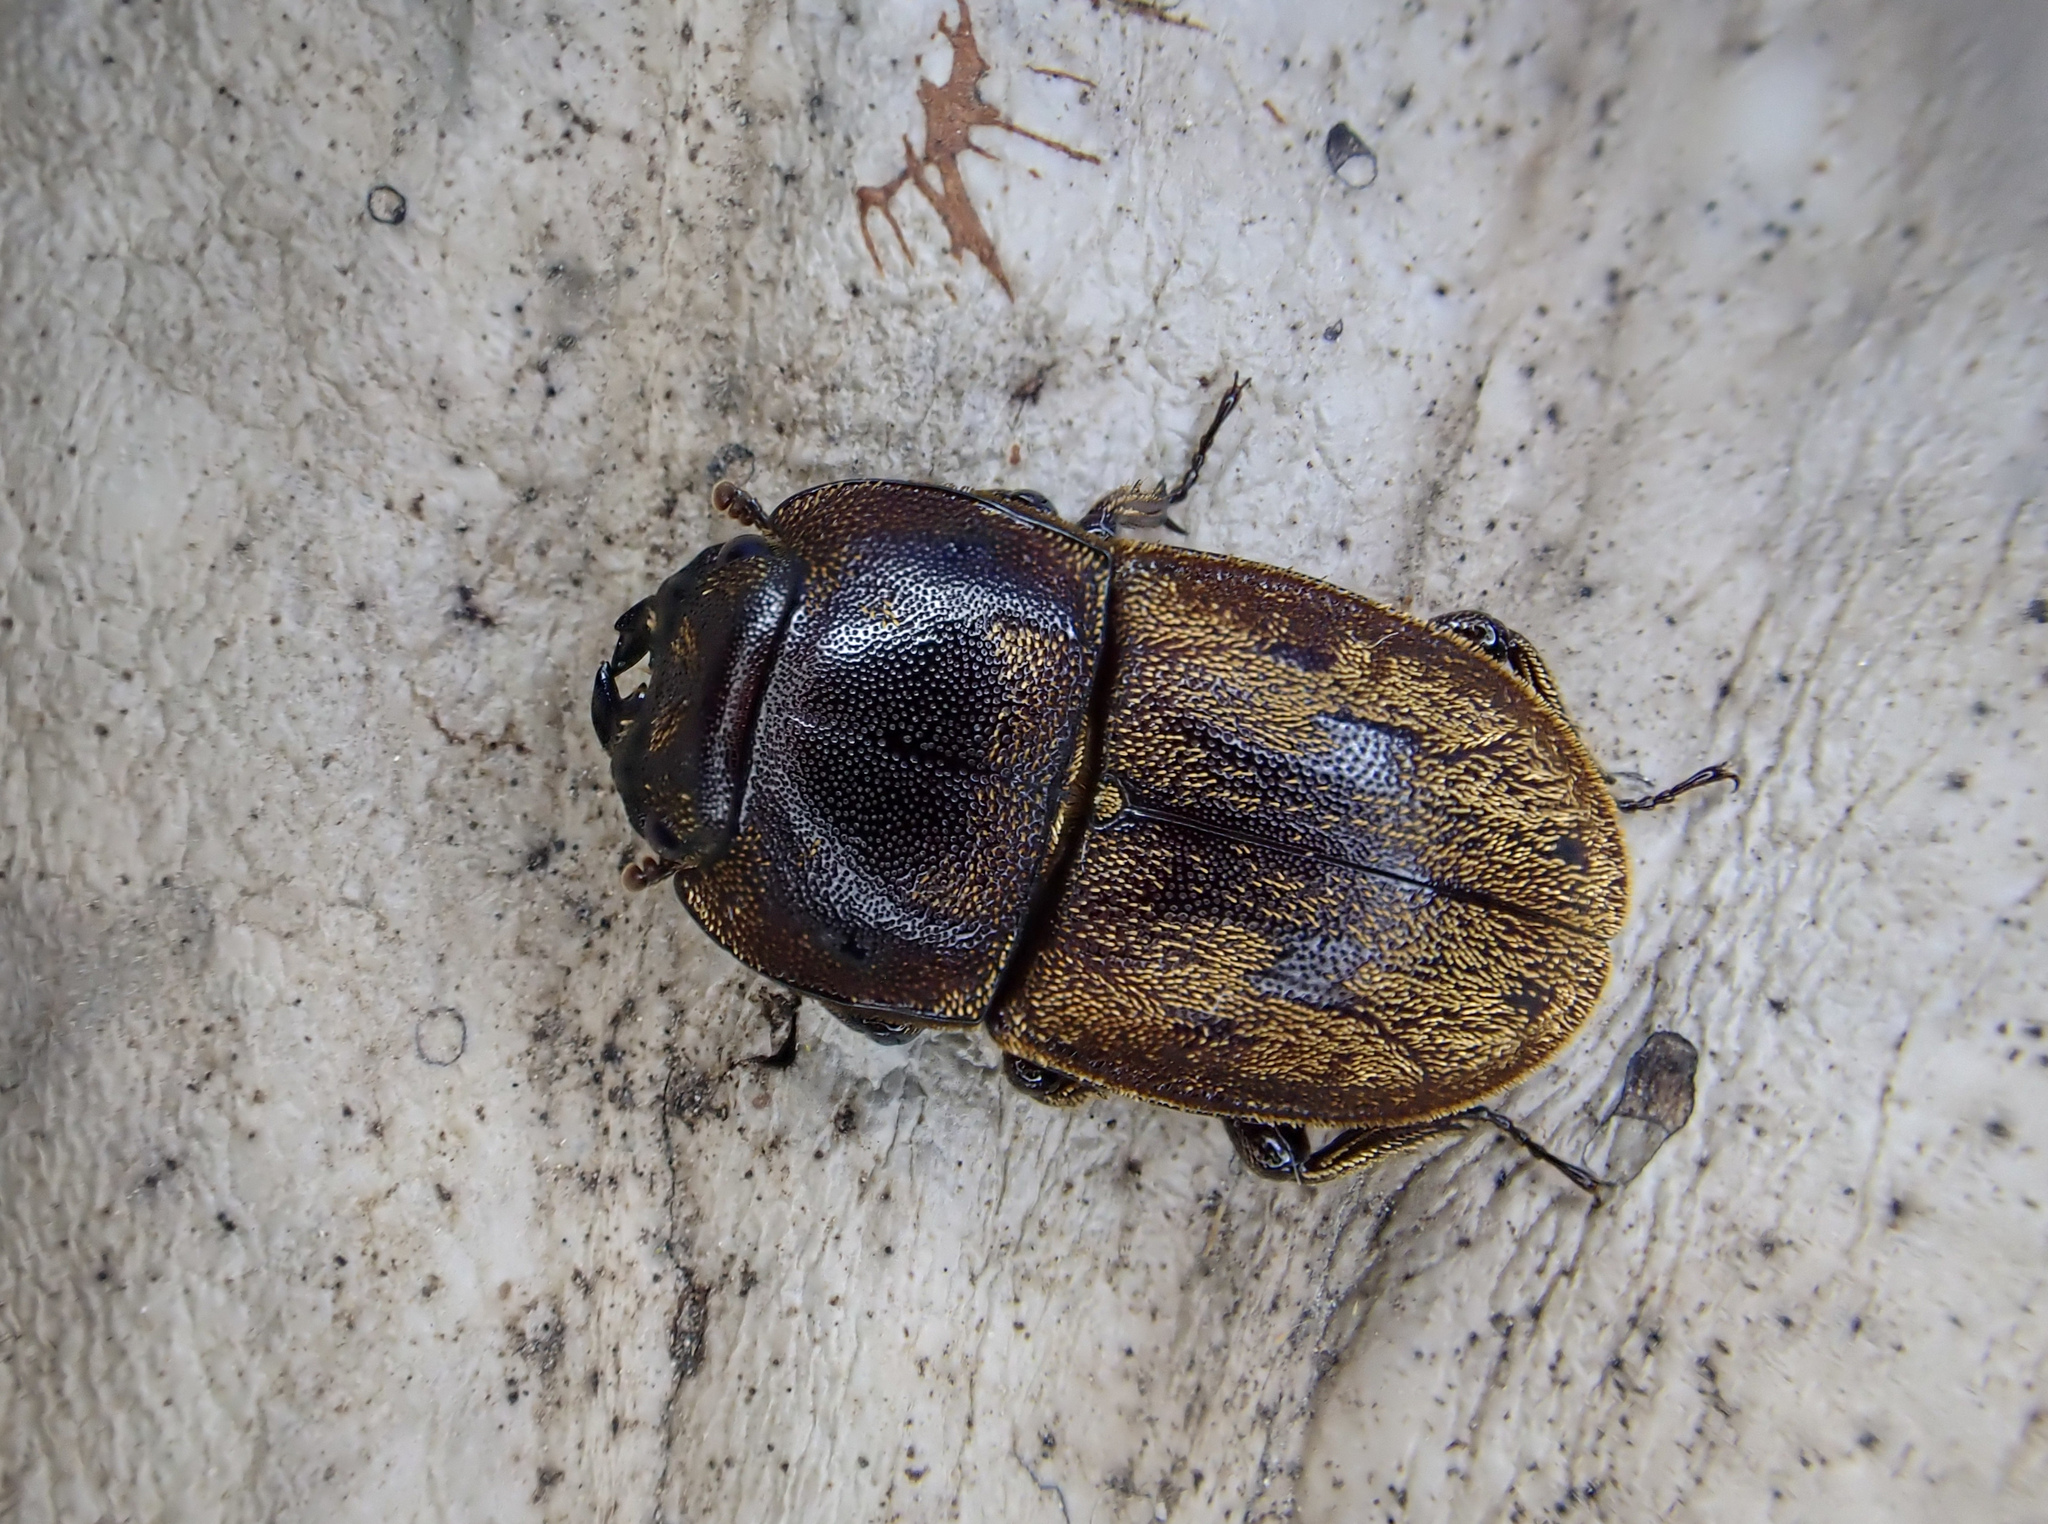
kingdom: Animalia
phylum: Arthropoda
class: Insecta
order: Coleoptera
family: Lucanidae
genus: Paralissotes
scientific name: Paralissotes planus
